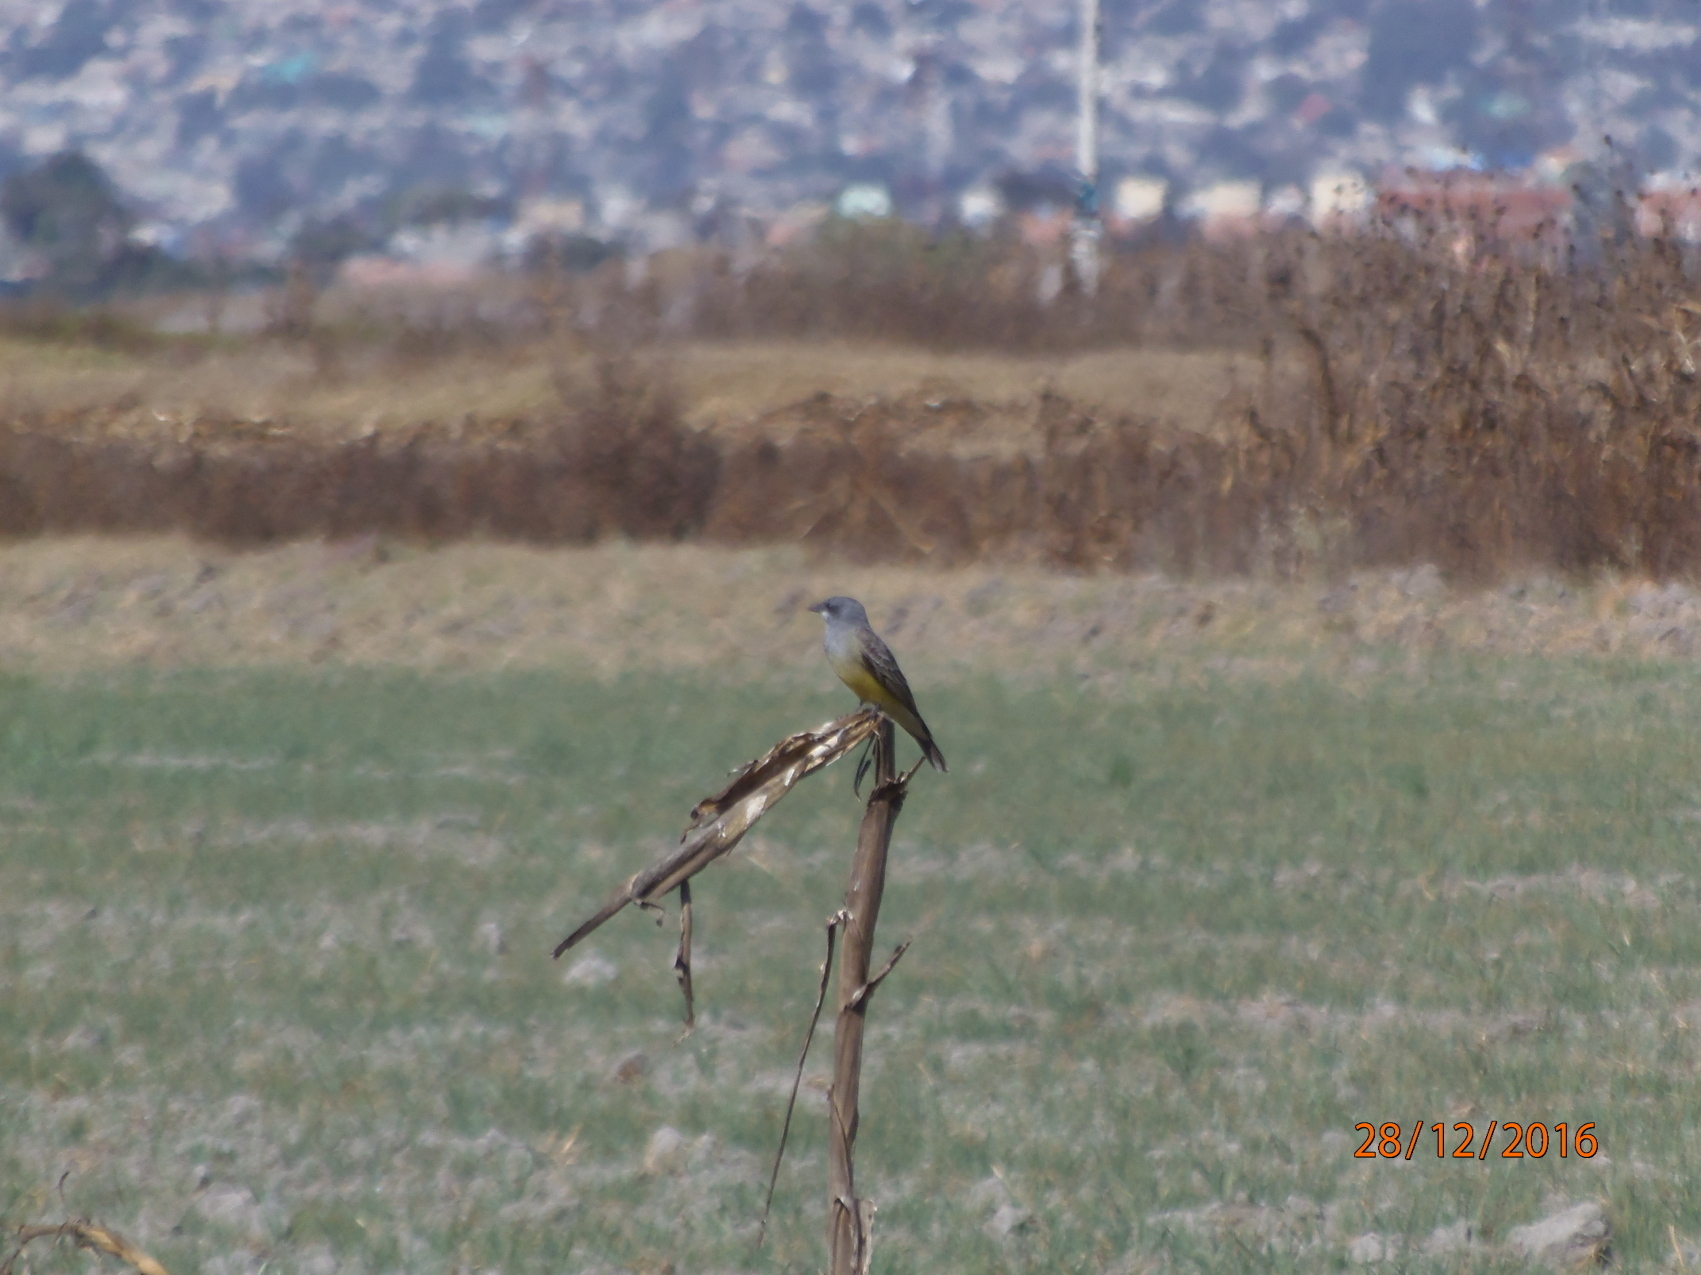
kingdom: Animalia
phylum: Chordata
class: Aves
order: Passeriformes
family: Tyrannidae
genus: Tyrannus
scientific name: Tyrannus vociferans
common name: Cassin's kingbird
